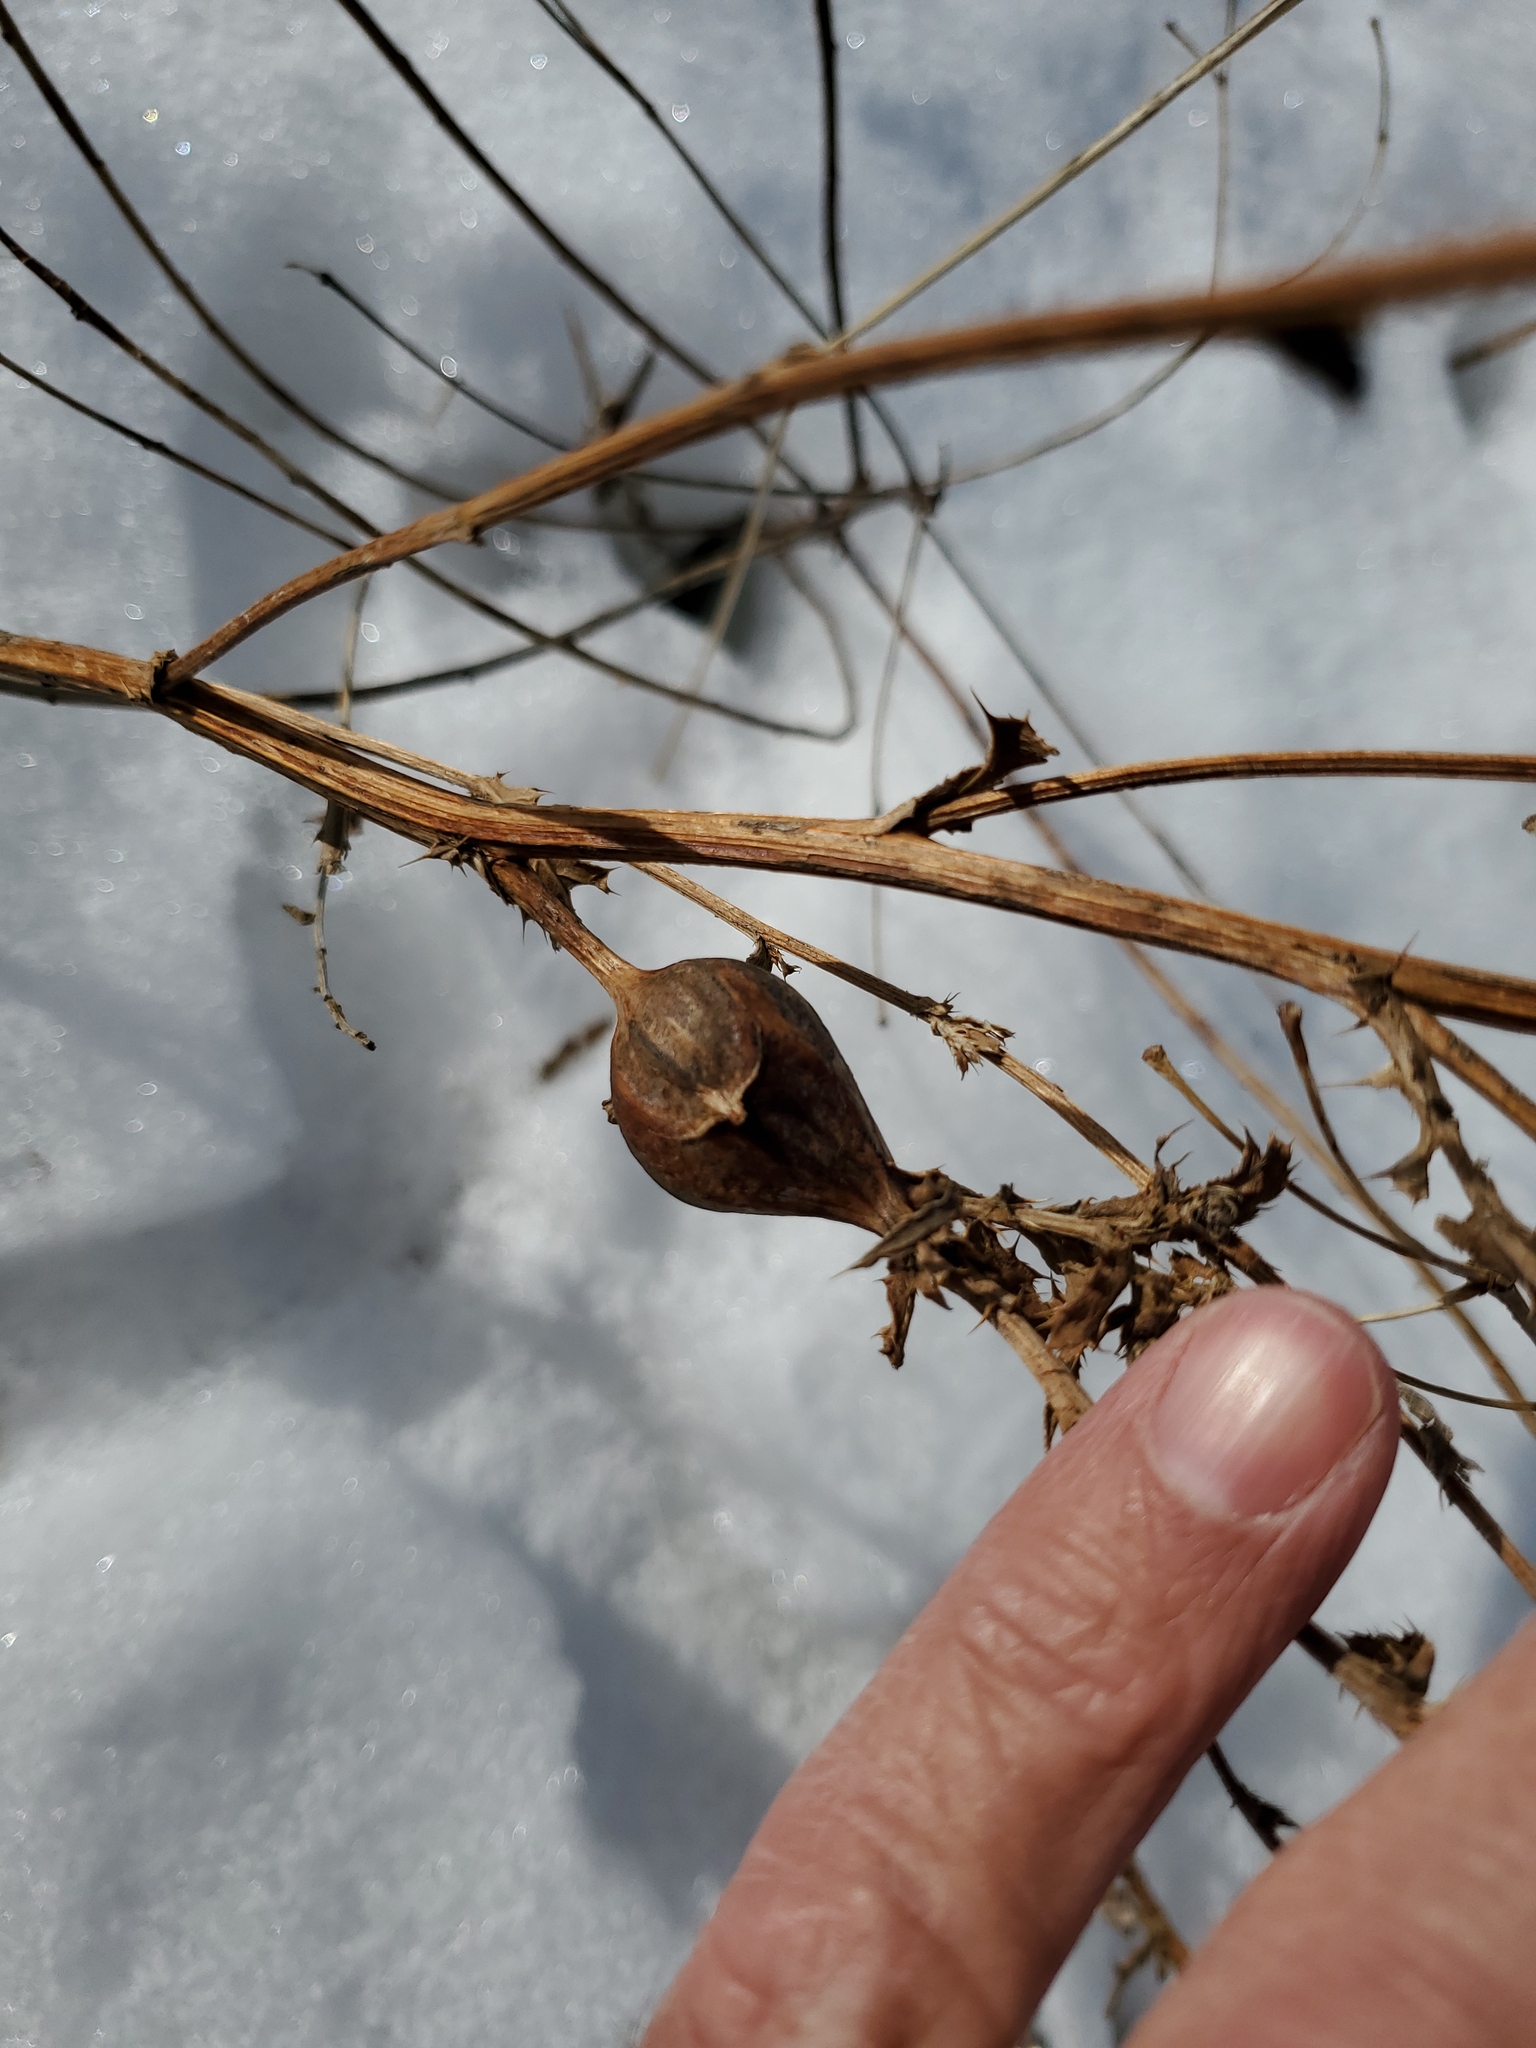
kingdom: Plantae
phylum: Tracheophyta
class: Magnoliopsida
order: Asterales
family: Asteraceae
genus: Cirsium
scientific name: Cirsium arvense
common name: Creeping thistle
